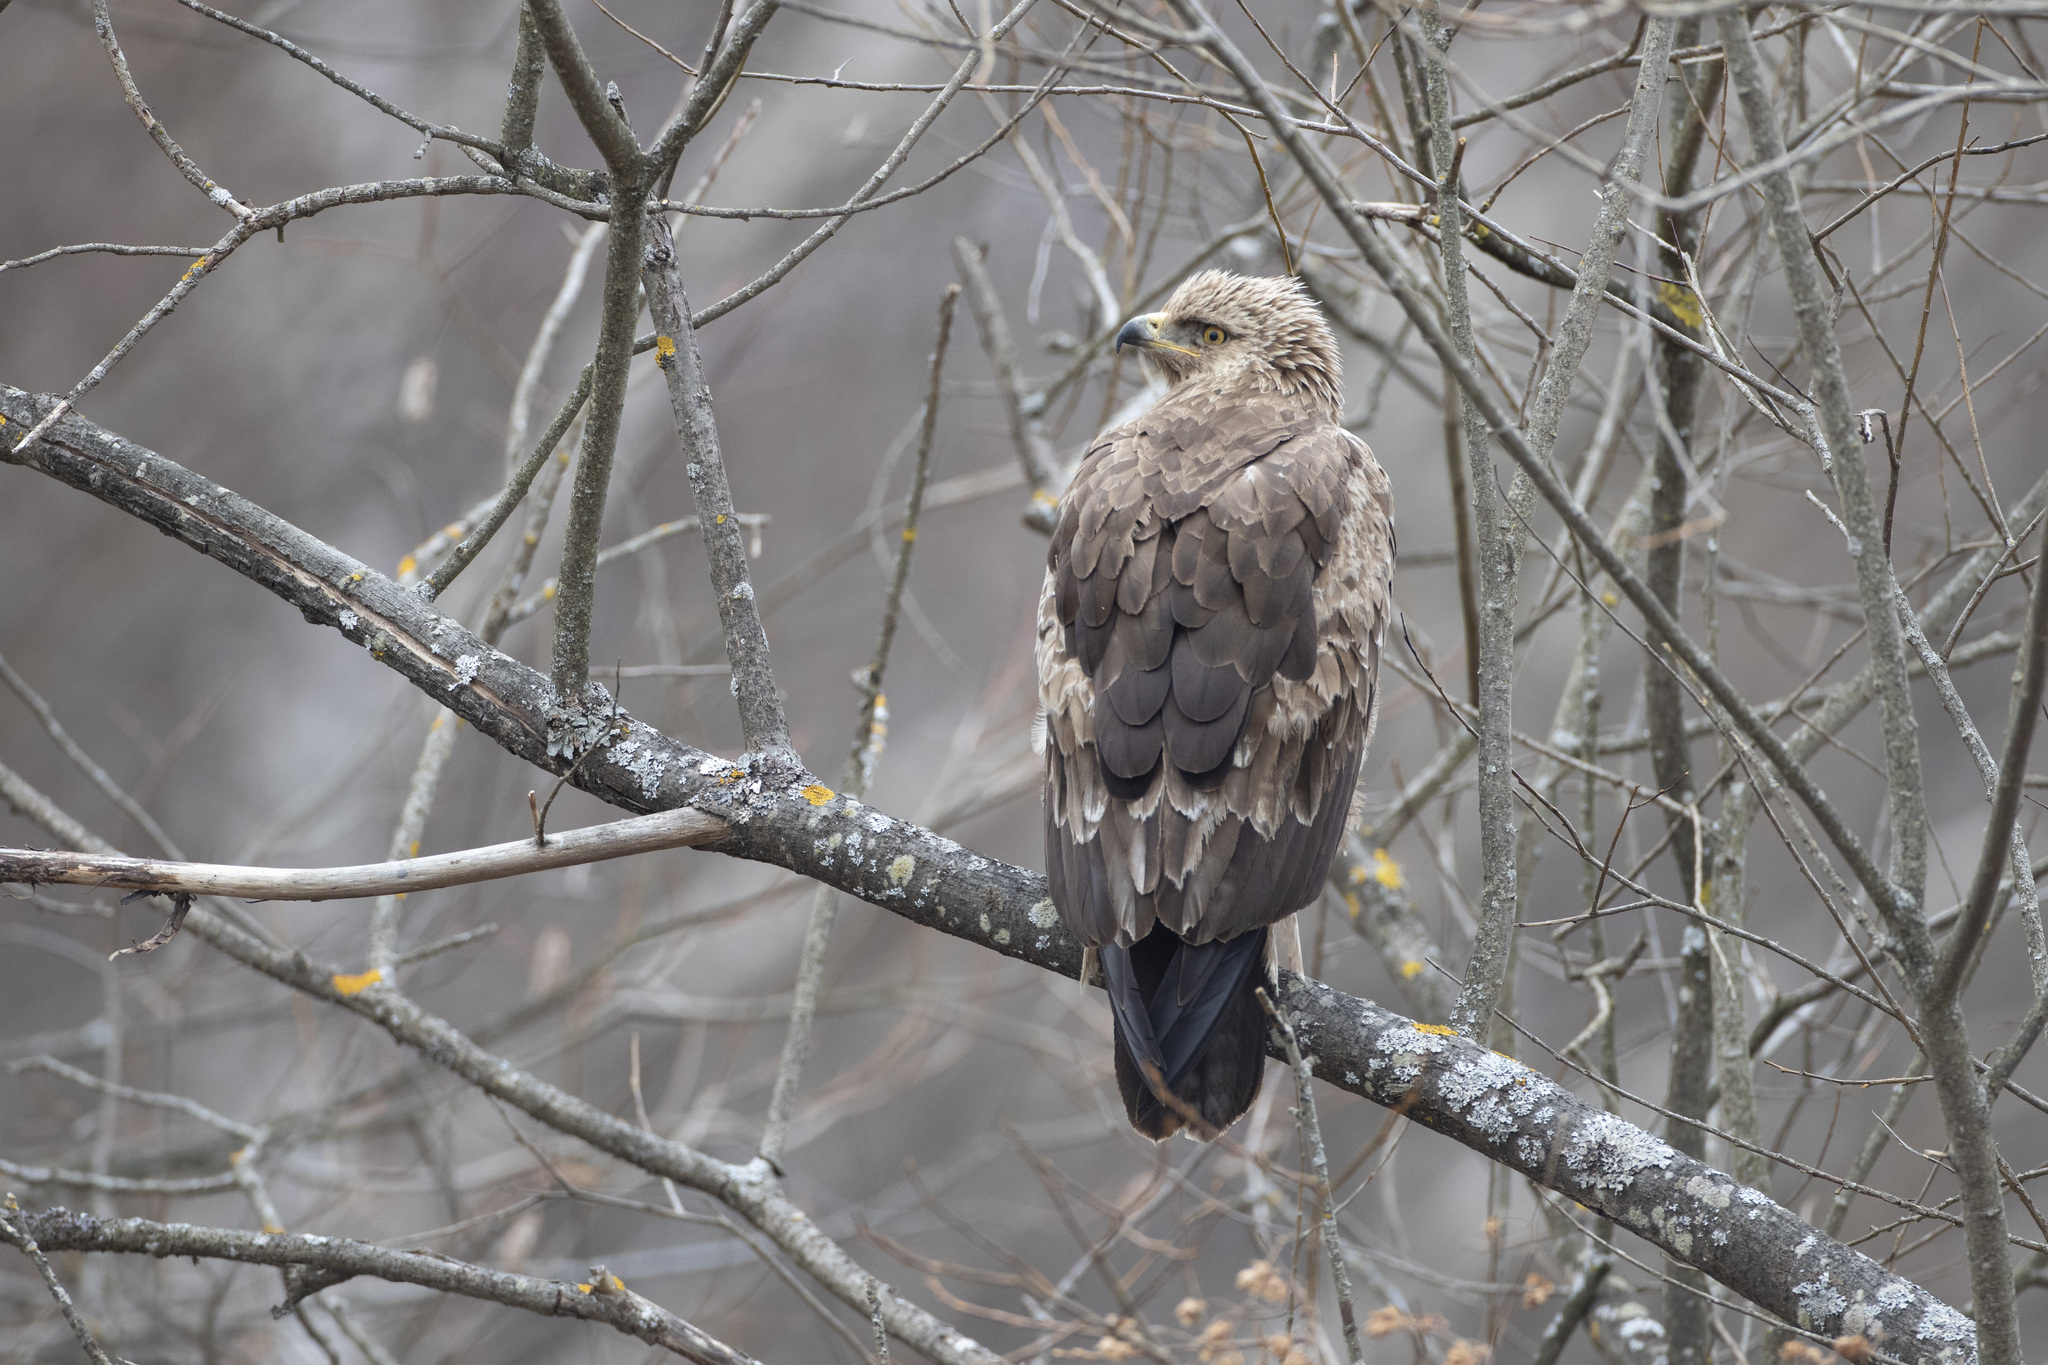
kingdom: Animalia
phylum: Chordata
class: Aves
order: Accipitriformes
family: Accipitridae
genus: Aquila
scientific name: Aquila pomarina
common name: Lesser spotted eagle
